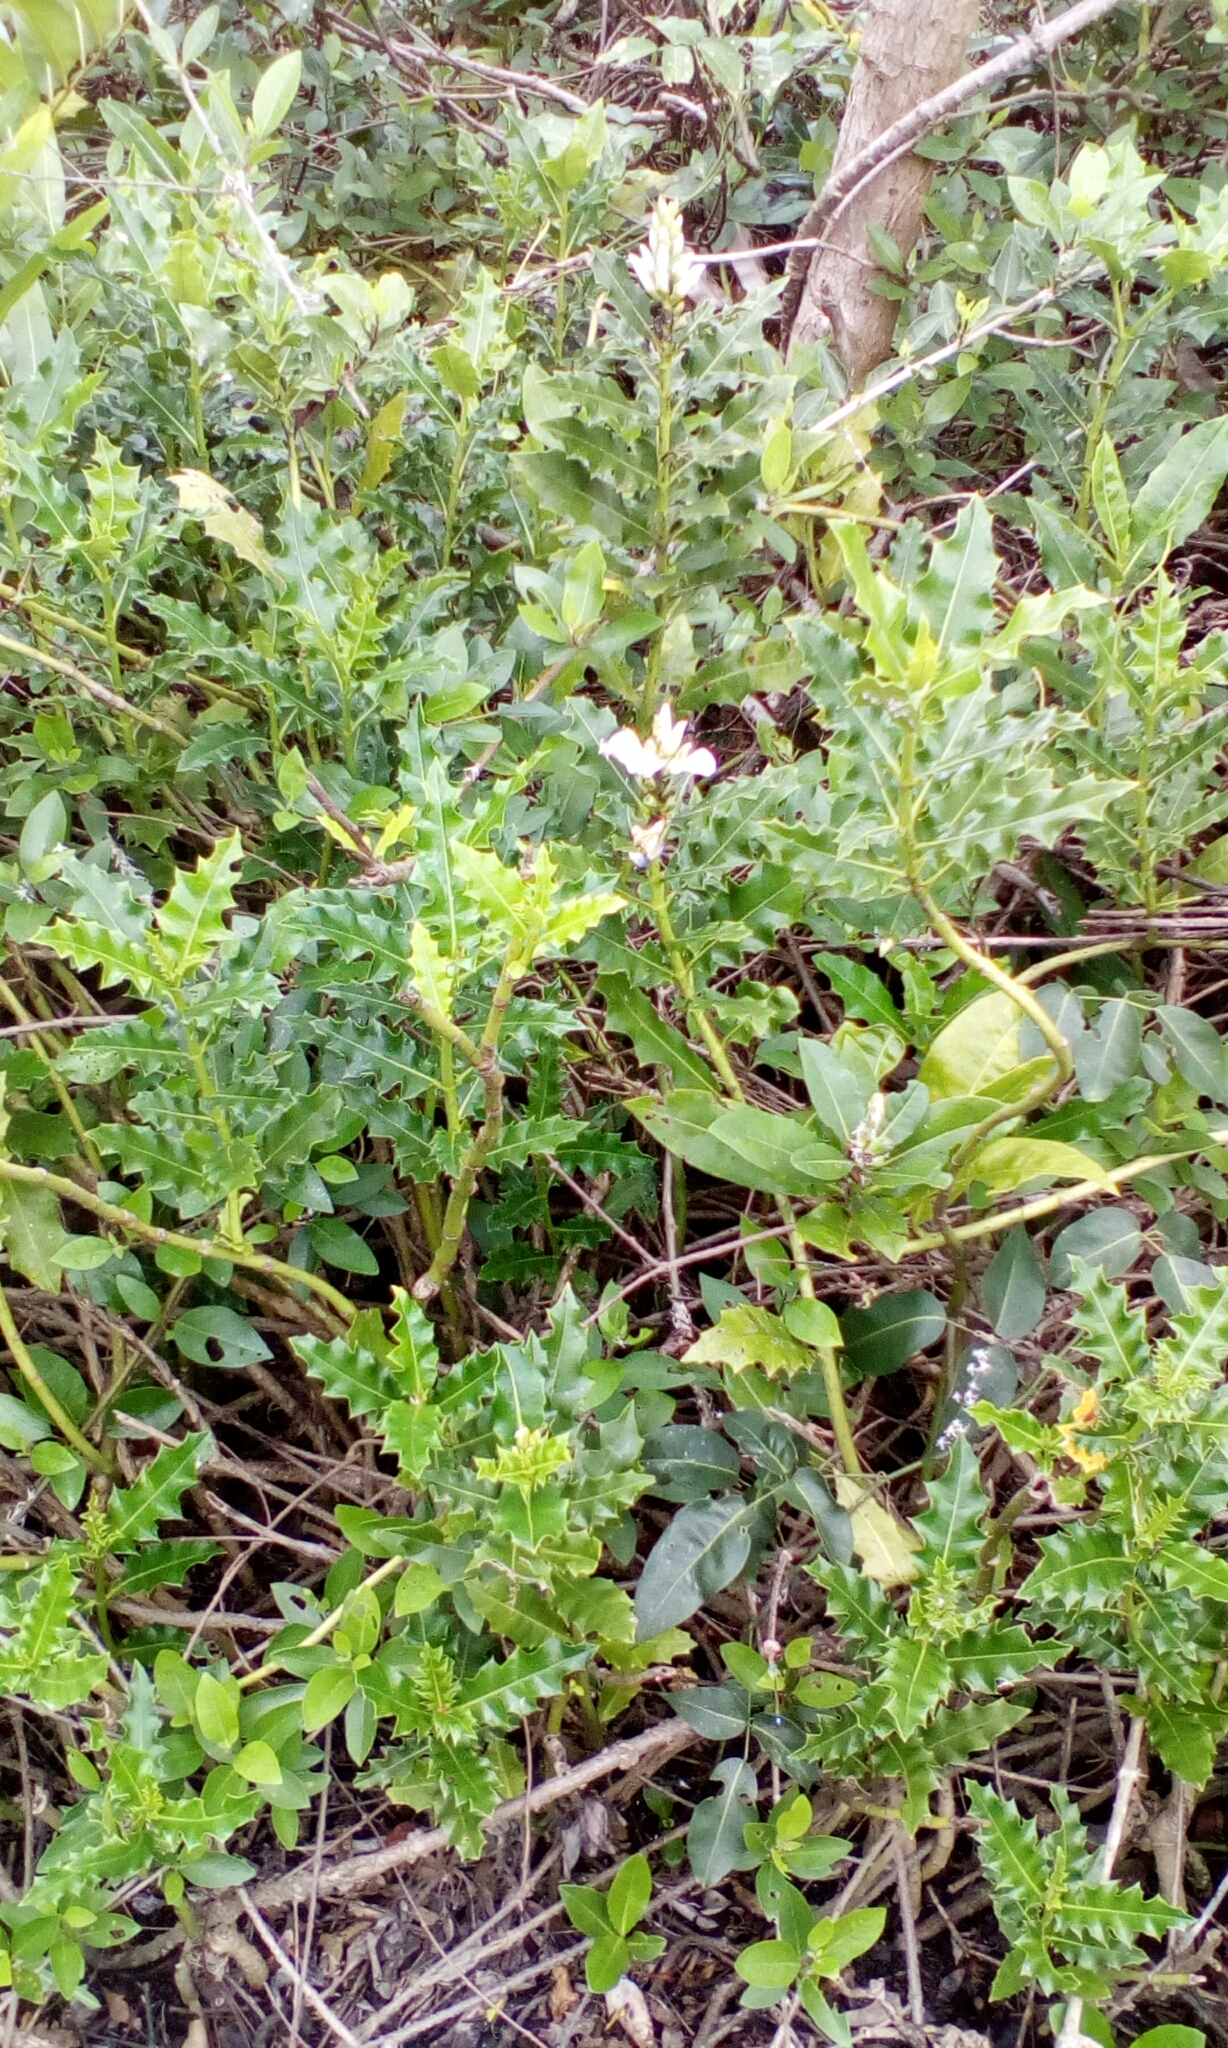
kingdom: Plantae
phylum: Tracheophyta
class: Magnoliopsida
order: Lamiales
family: Acanthaceae
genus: Acanthus
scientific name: Acanthus ilicifolius
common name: Holy mangrove
